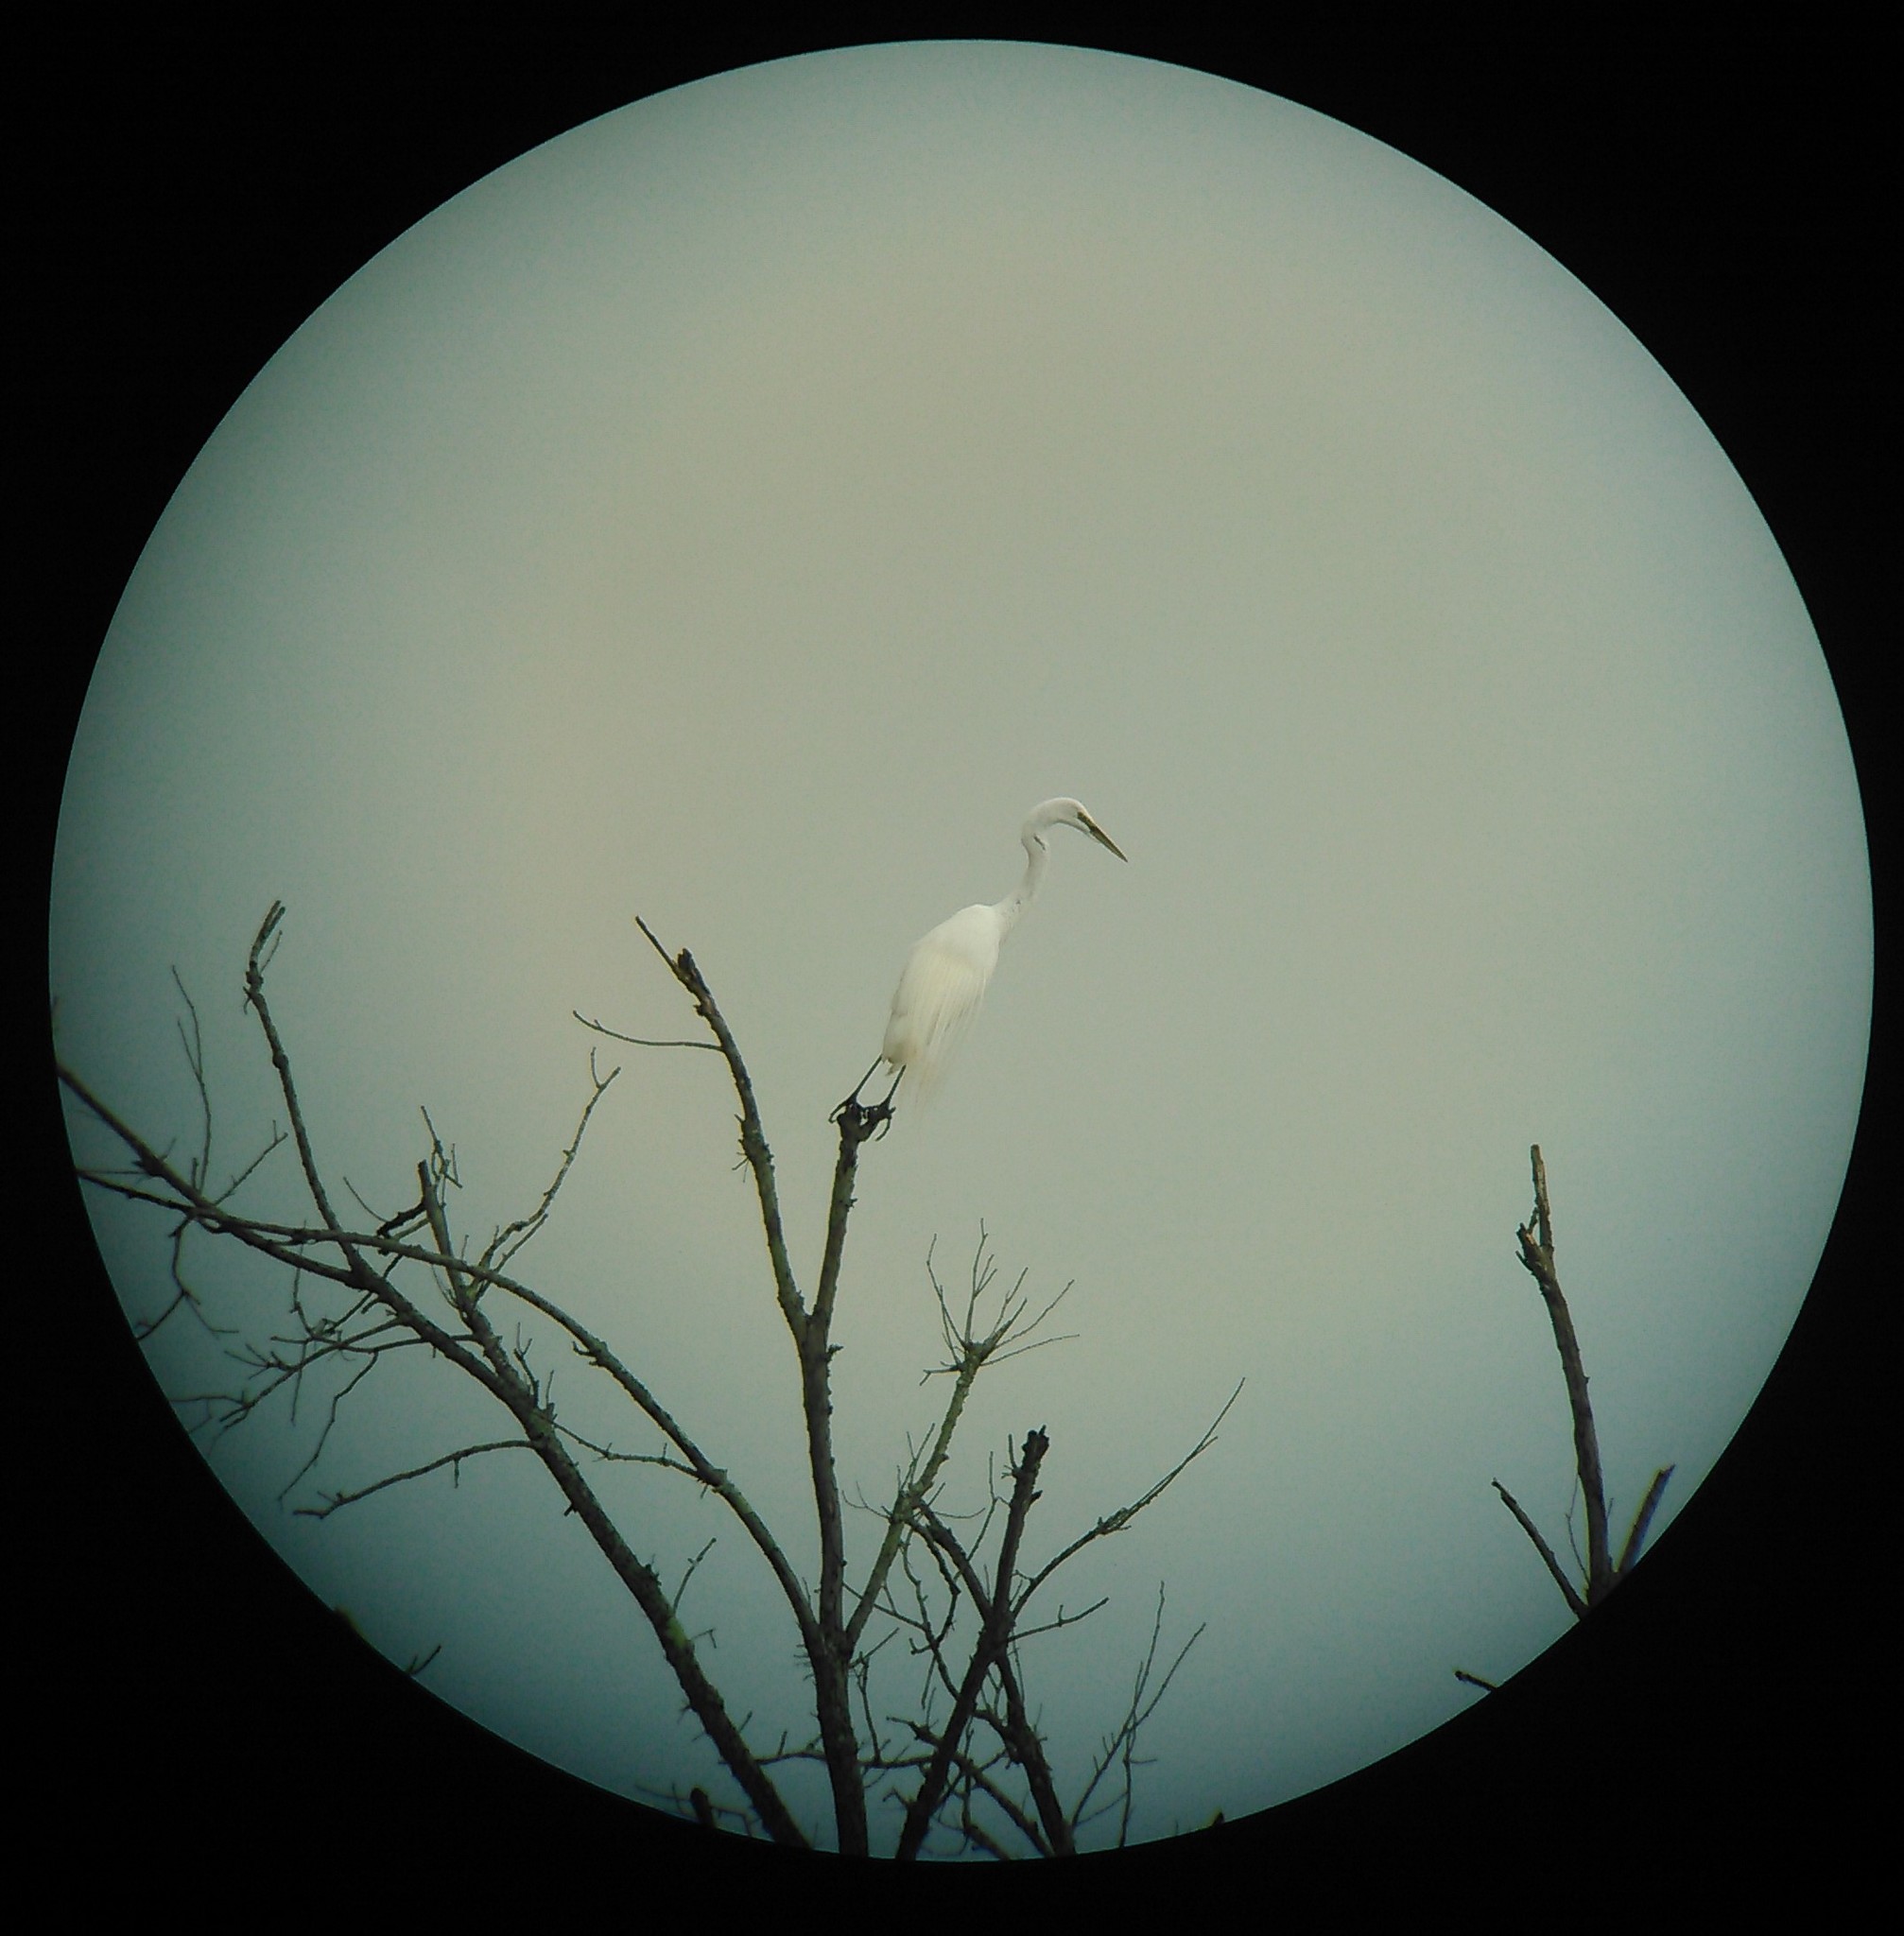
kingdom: Animalia
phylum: Chordata
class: Aves
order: Pelecaniformes
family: Ardeidae
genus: Ardea
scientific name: Ardea alba
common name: Great egret
